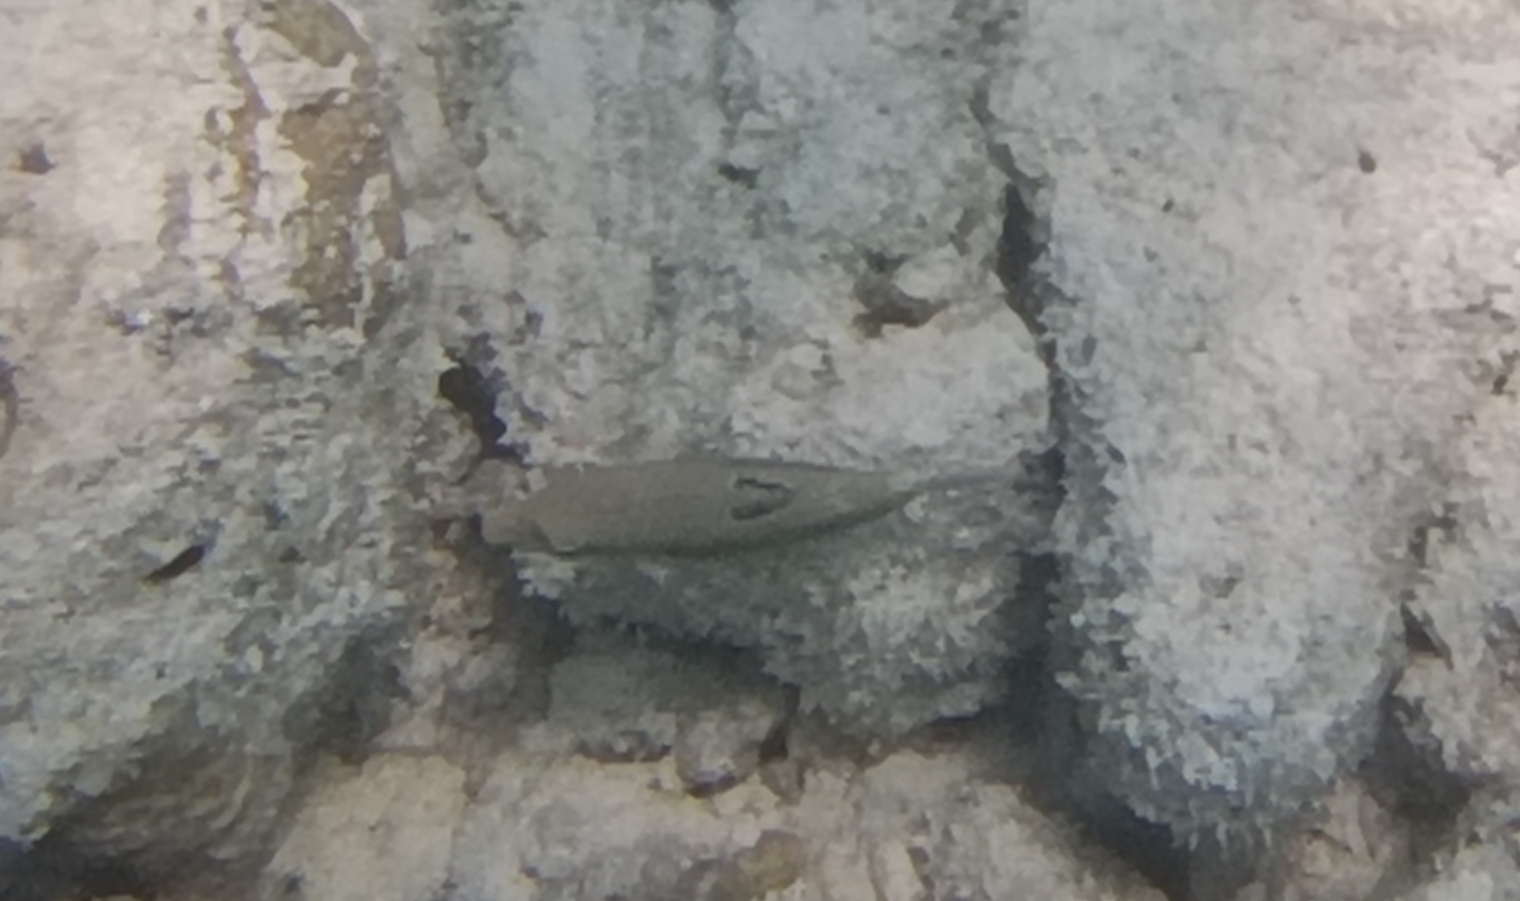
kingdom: Animalia
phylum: Chordata
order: Tetraodontiformes
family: Tetraodontidae
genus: Canthigaster
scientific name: Canthigaster bennetti
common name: Bennett's pufferfish
